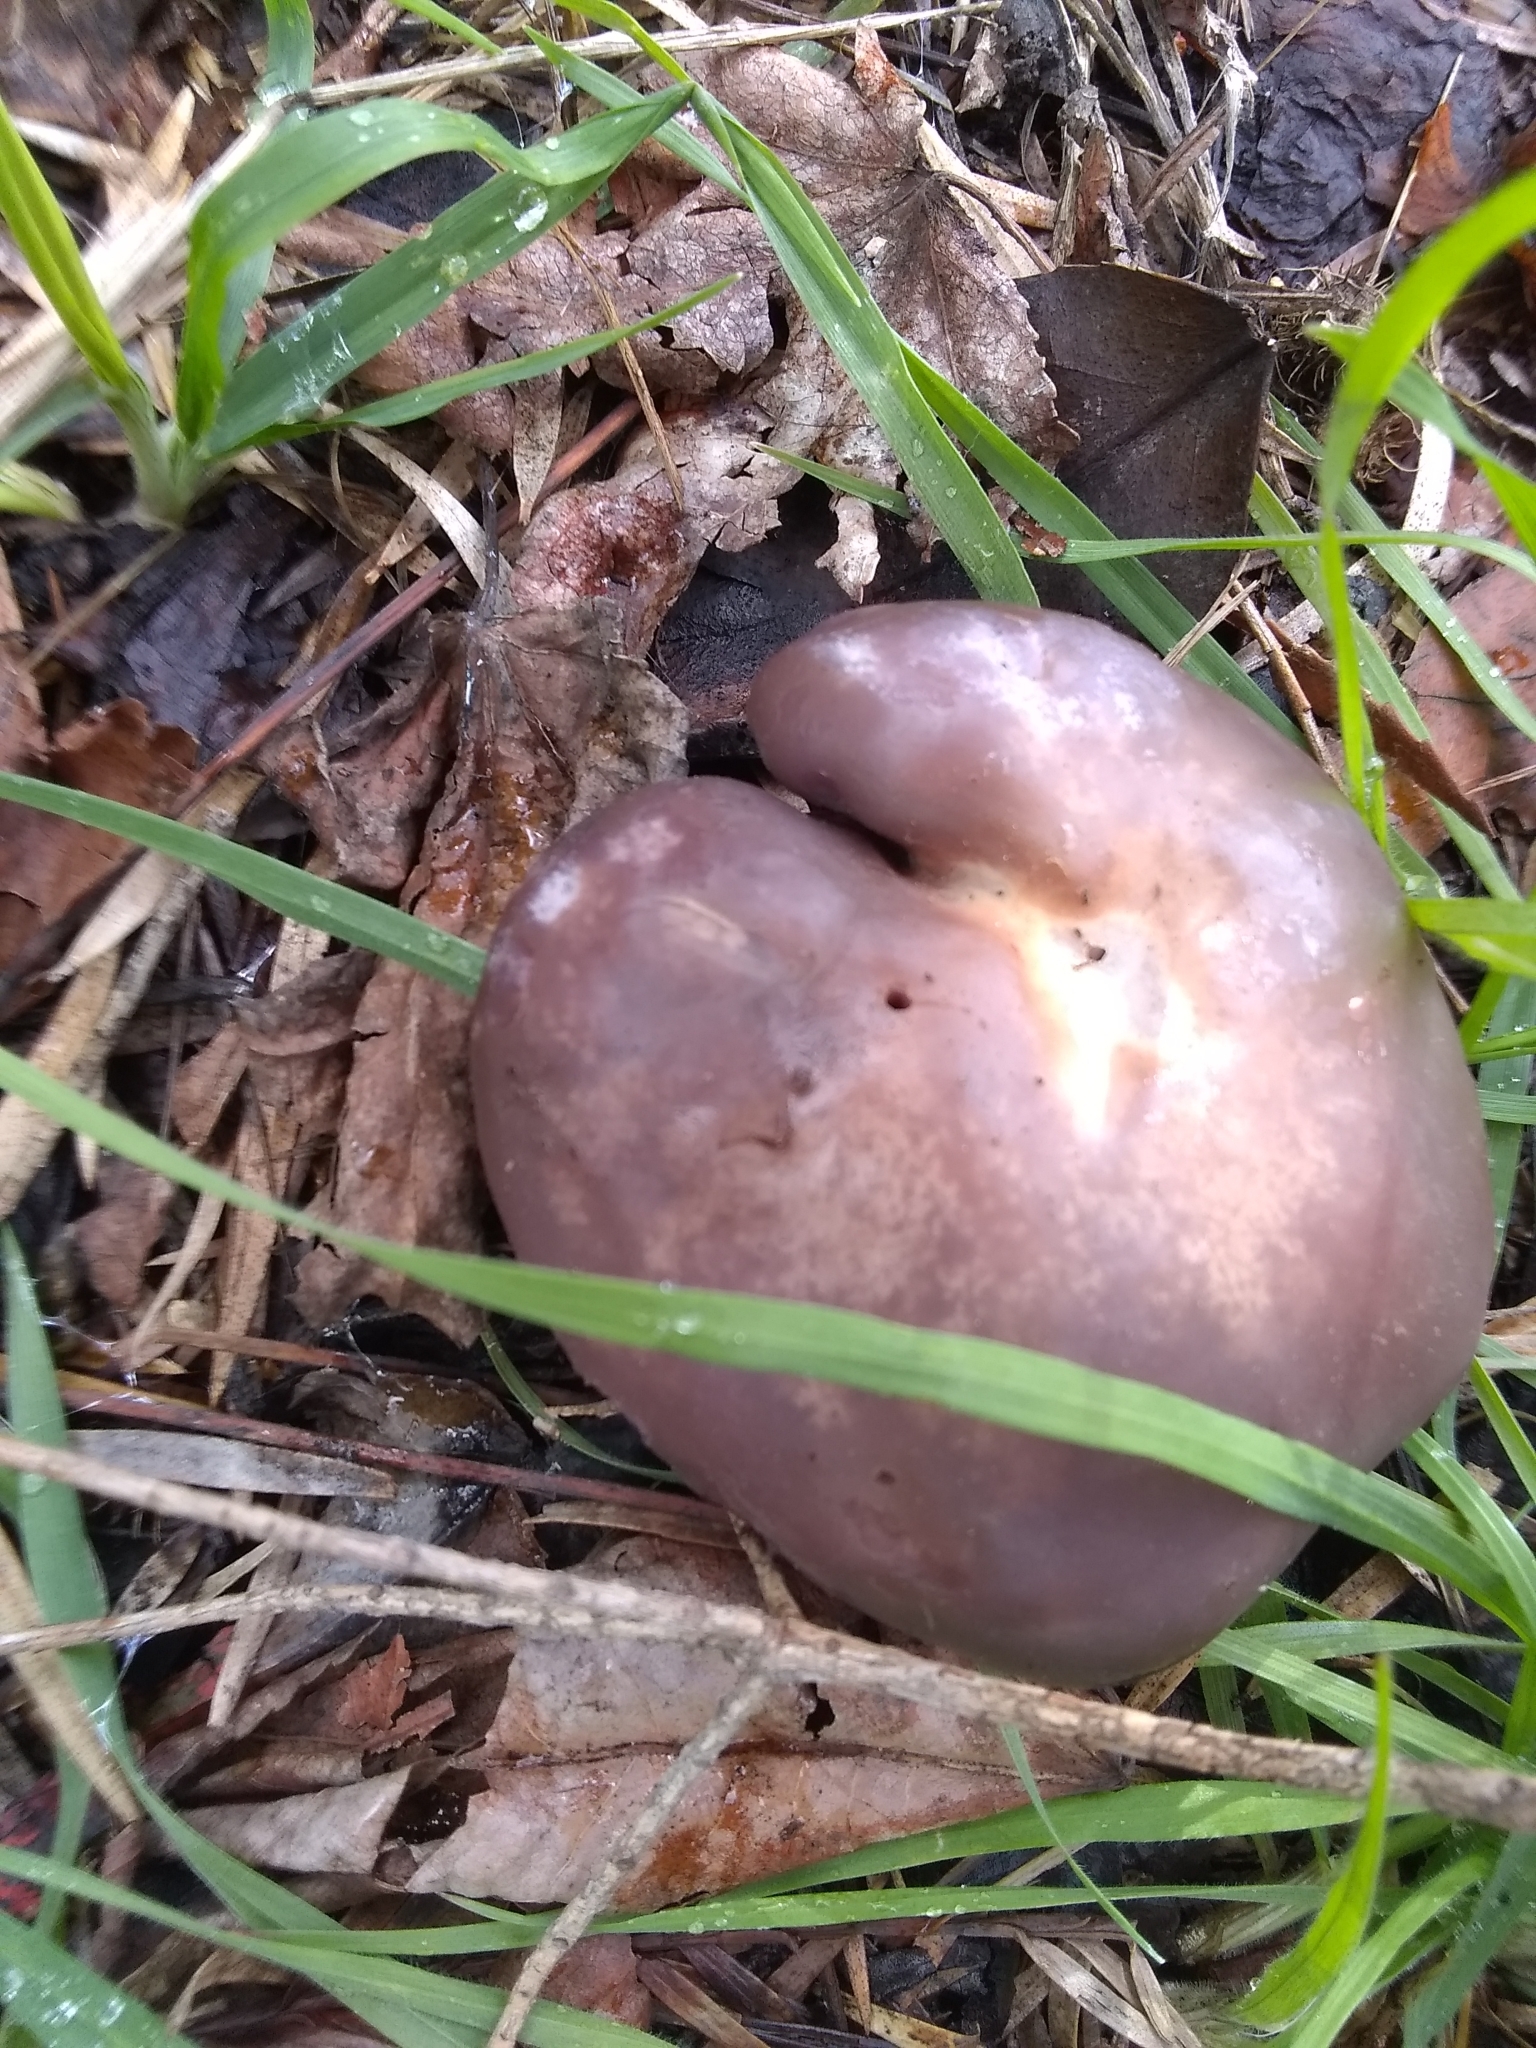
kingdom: Fungi
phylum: Basidiomycota
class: Agaricomycetes
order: Agaricales
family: Tricholomataceae
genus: Collybia
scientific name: Collybia
